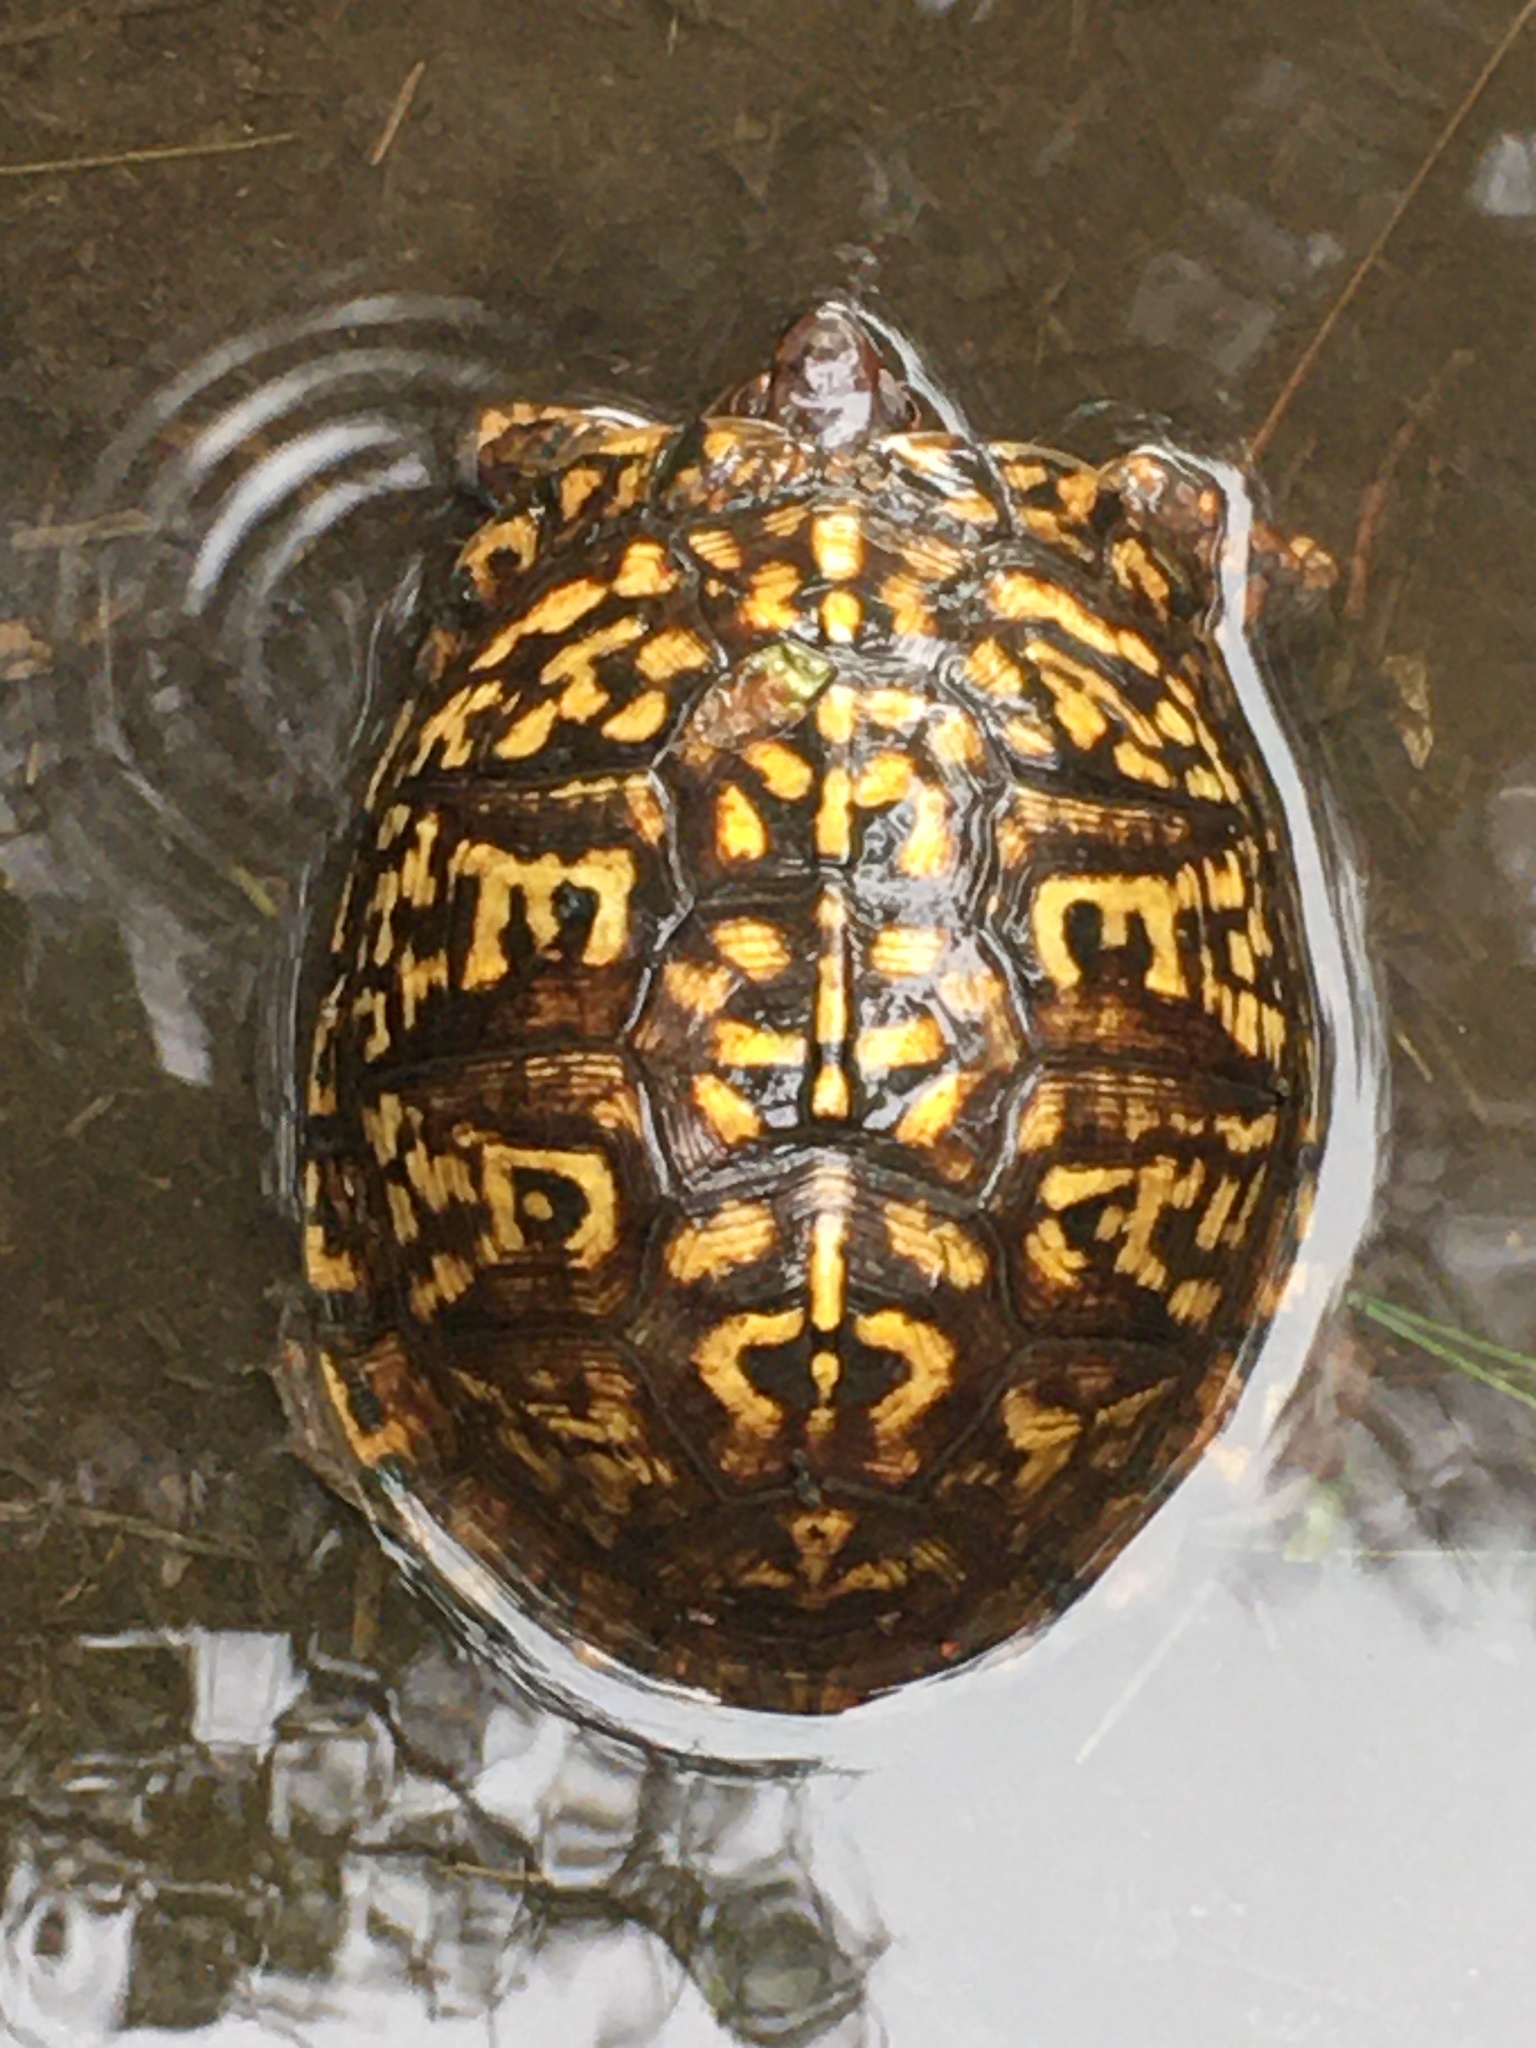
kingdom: Animalia
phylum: Chordata
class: Testudines
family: Emydidae
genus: Terrapene
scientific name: Terrapene carolina
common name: Common box turtle
